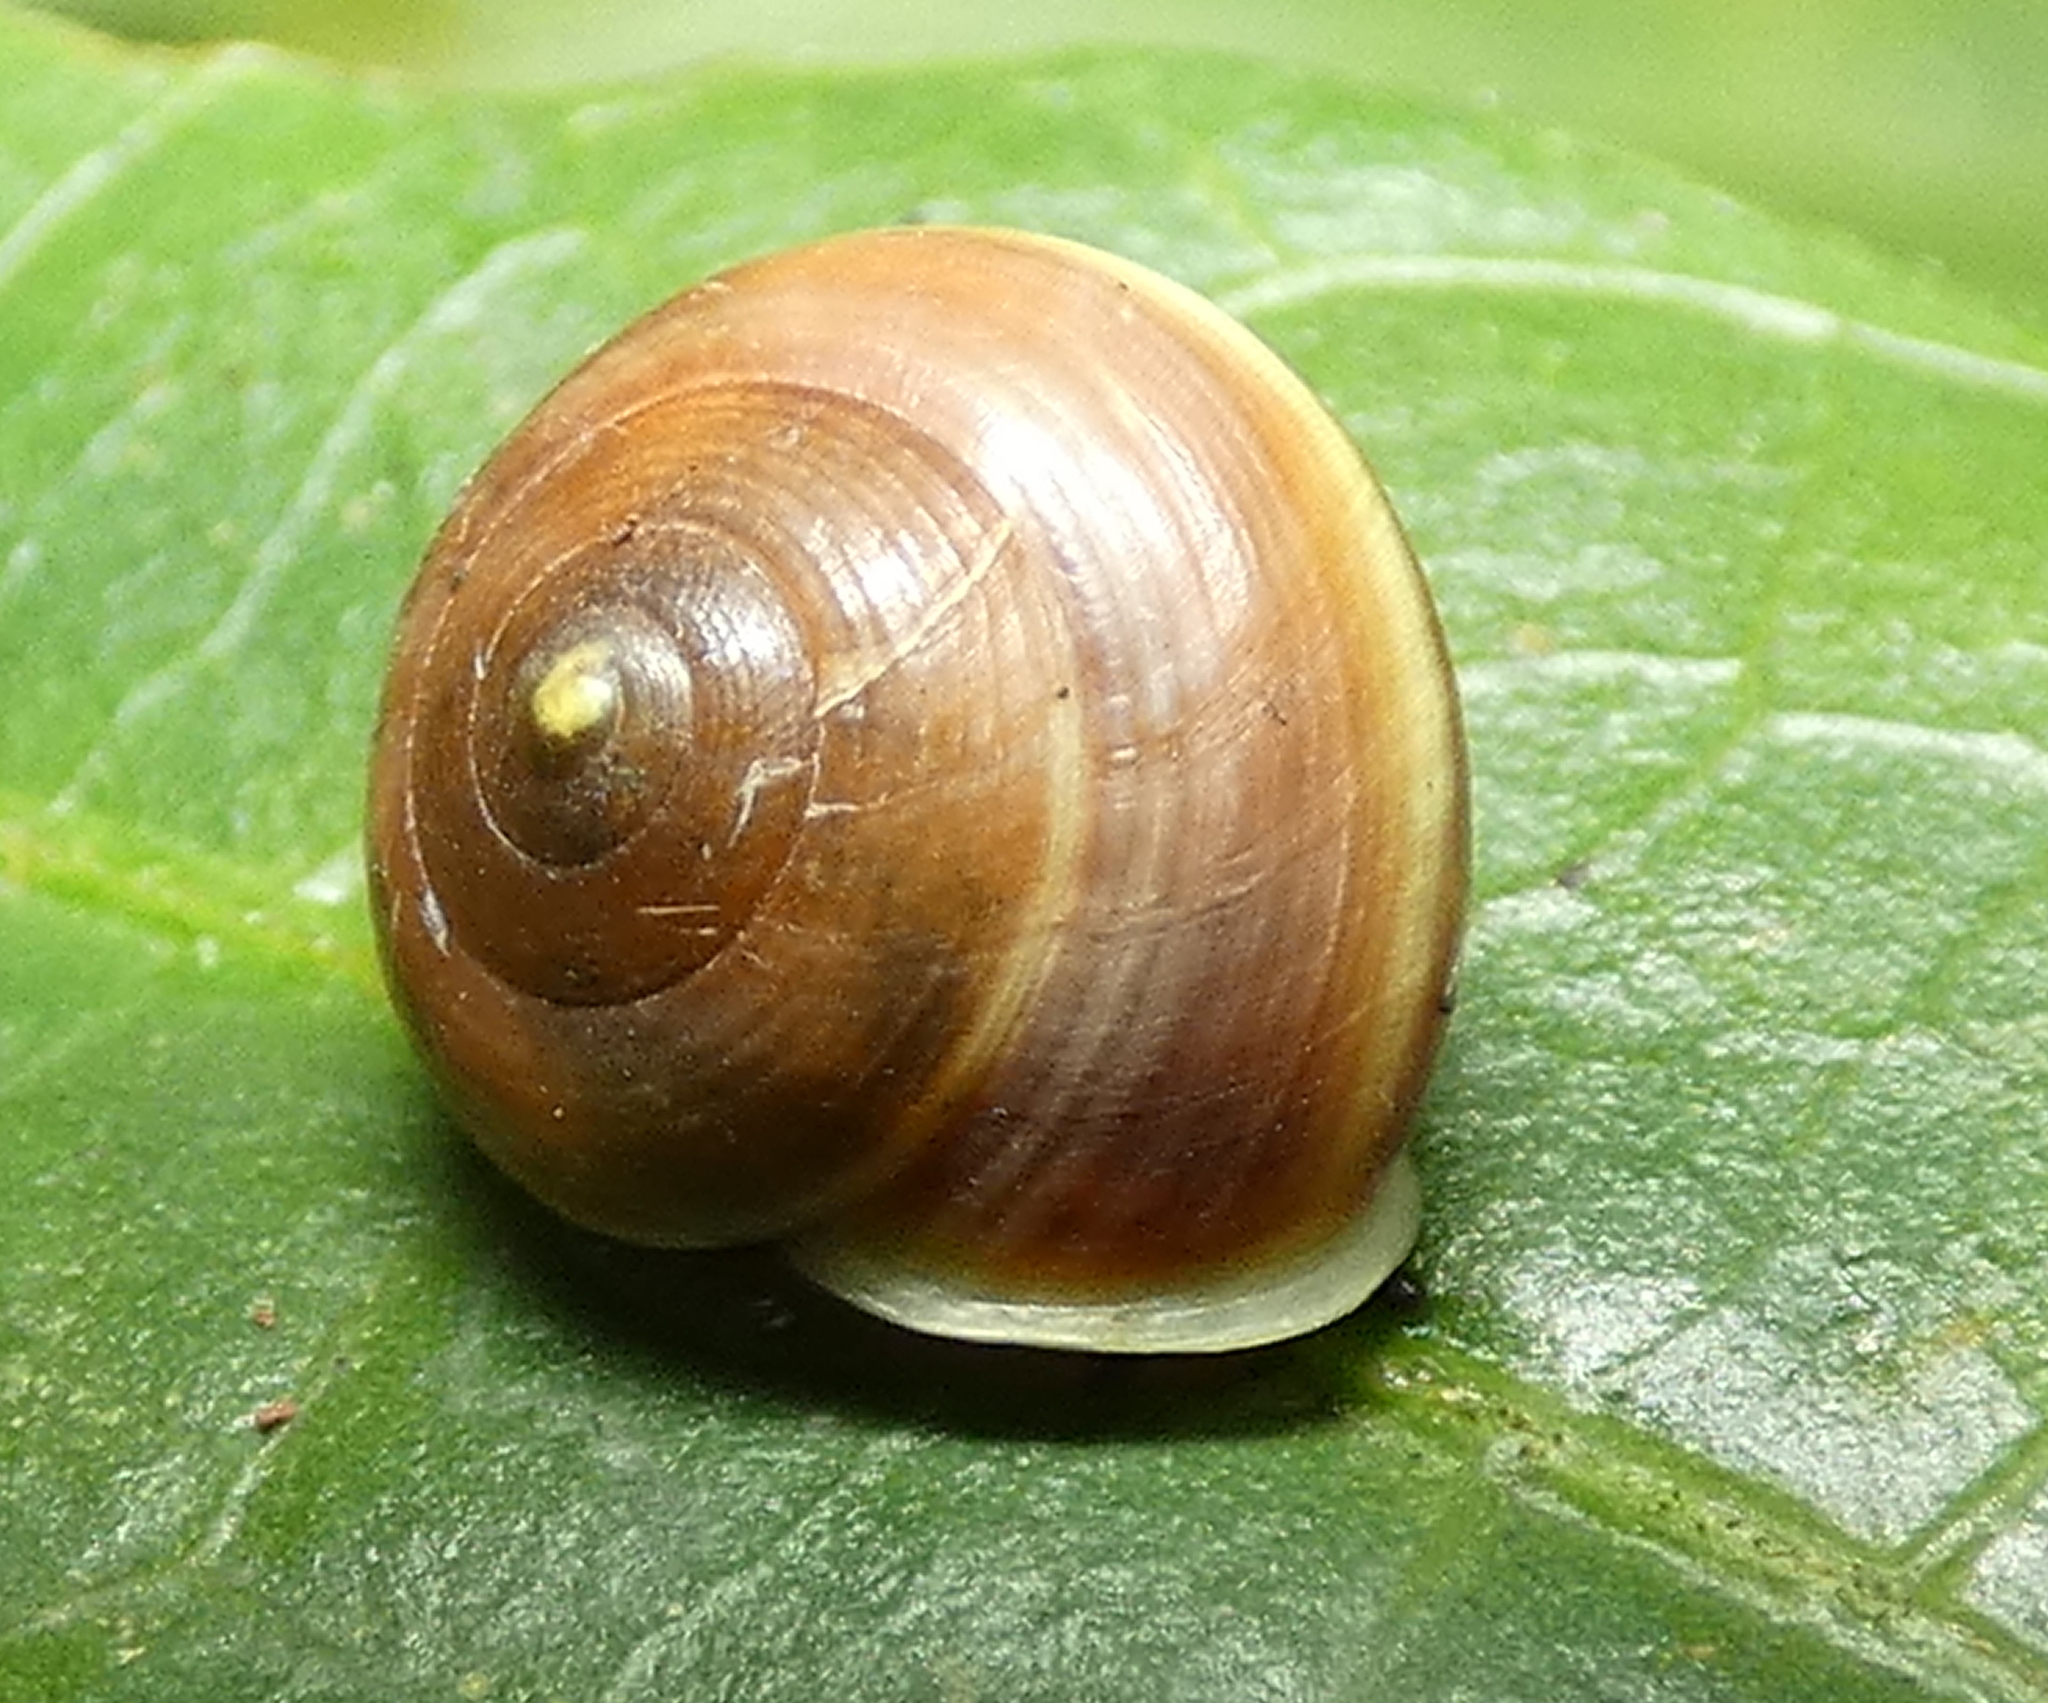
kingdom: Animalia
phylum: Mollusca
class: Gastropoda
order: Cycloneritida
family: Helicinidae
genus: Helicina
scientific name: Helicina variabilis
